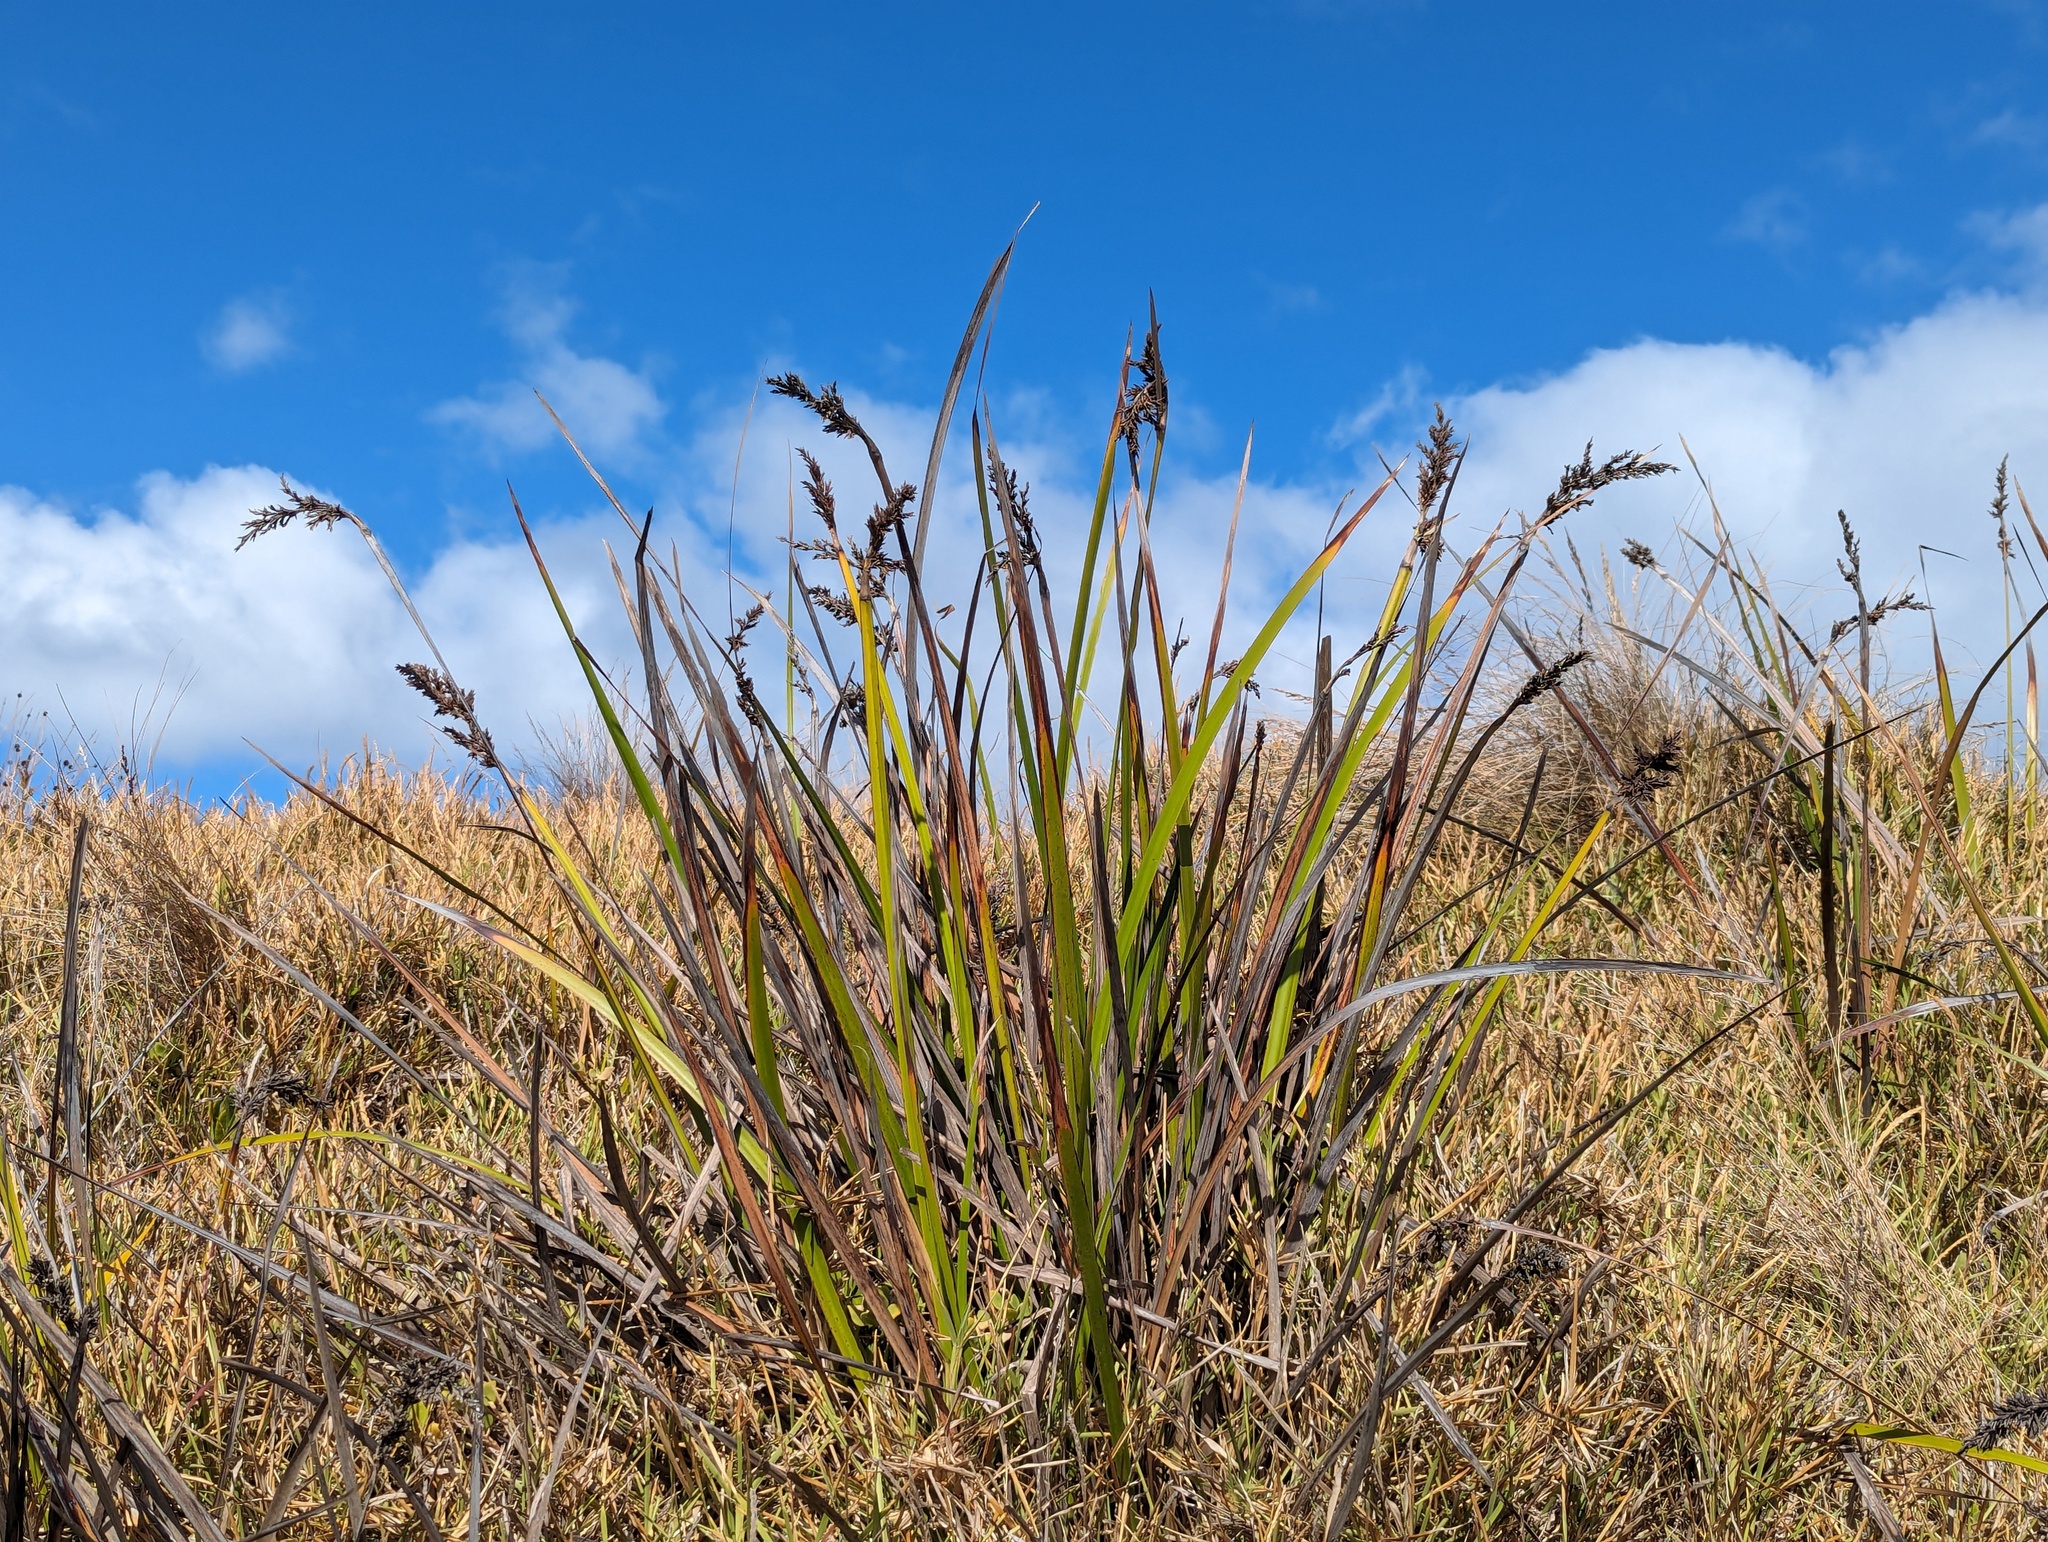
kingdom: Plantae
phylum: Tracheophyta
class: Liliopsida
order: Poales
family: Cyperaceae
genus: Lepidosperma
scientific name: Lepidosperma gladiatum
